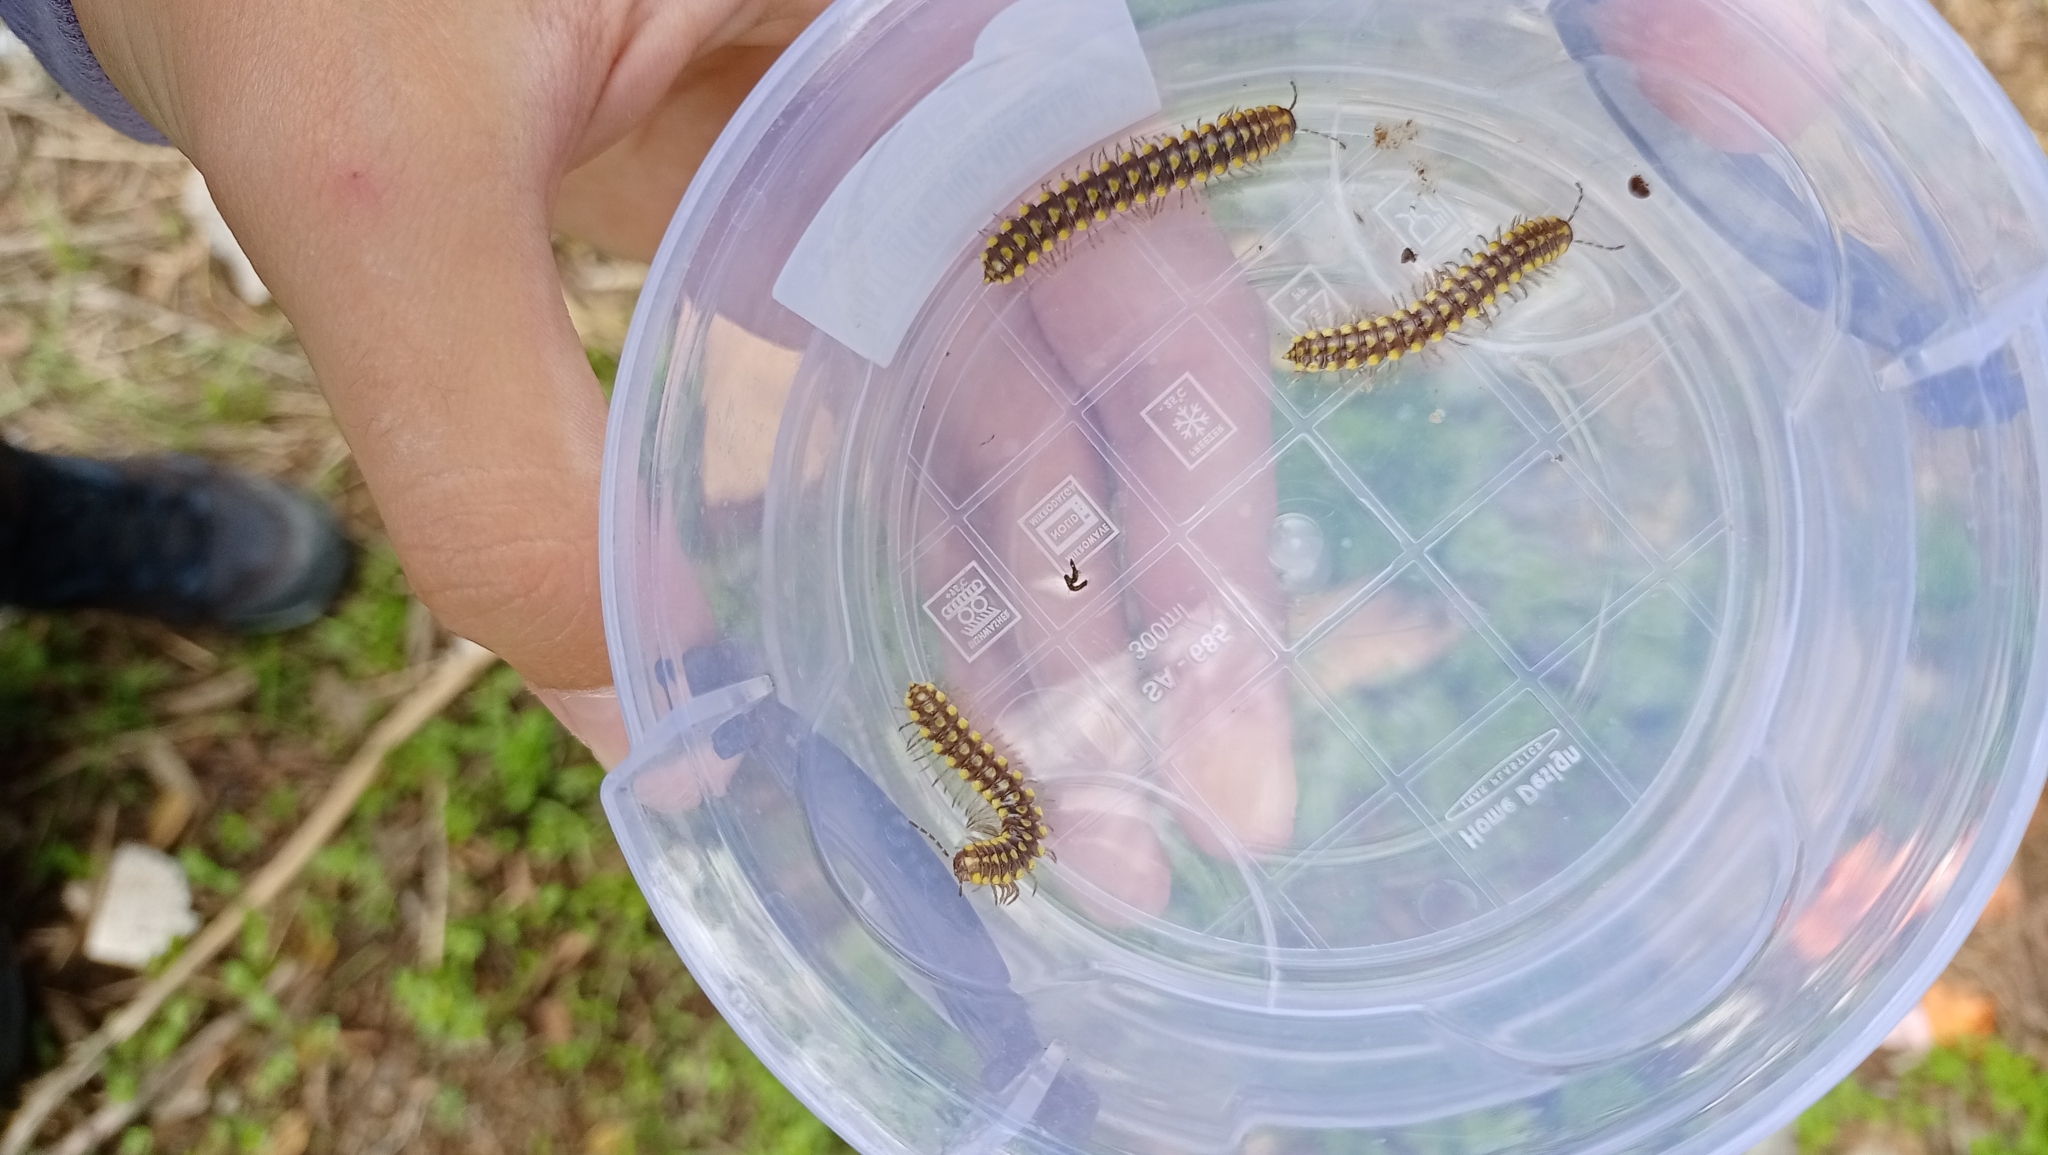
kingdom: Animalia
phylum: Arthropoda
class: Diplopoda
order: Polydesmida
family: Xystodesmidae
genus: Melaphe
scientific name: Melaphe vestita
